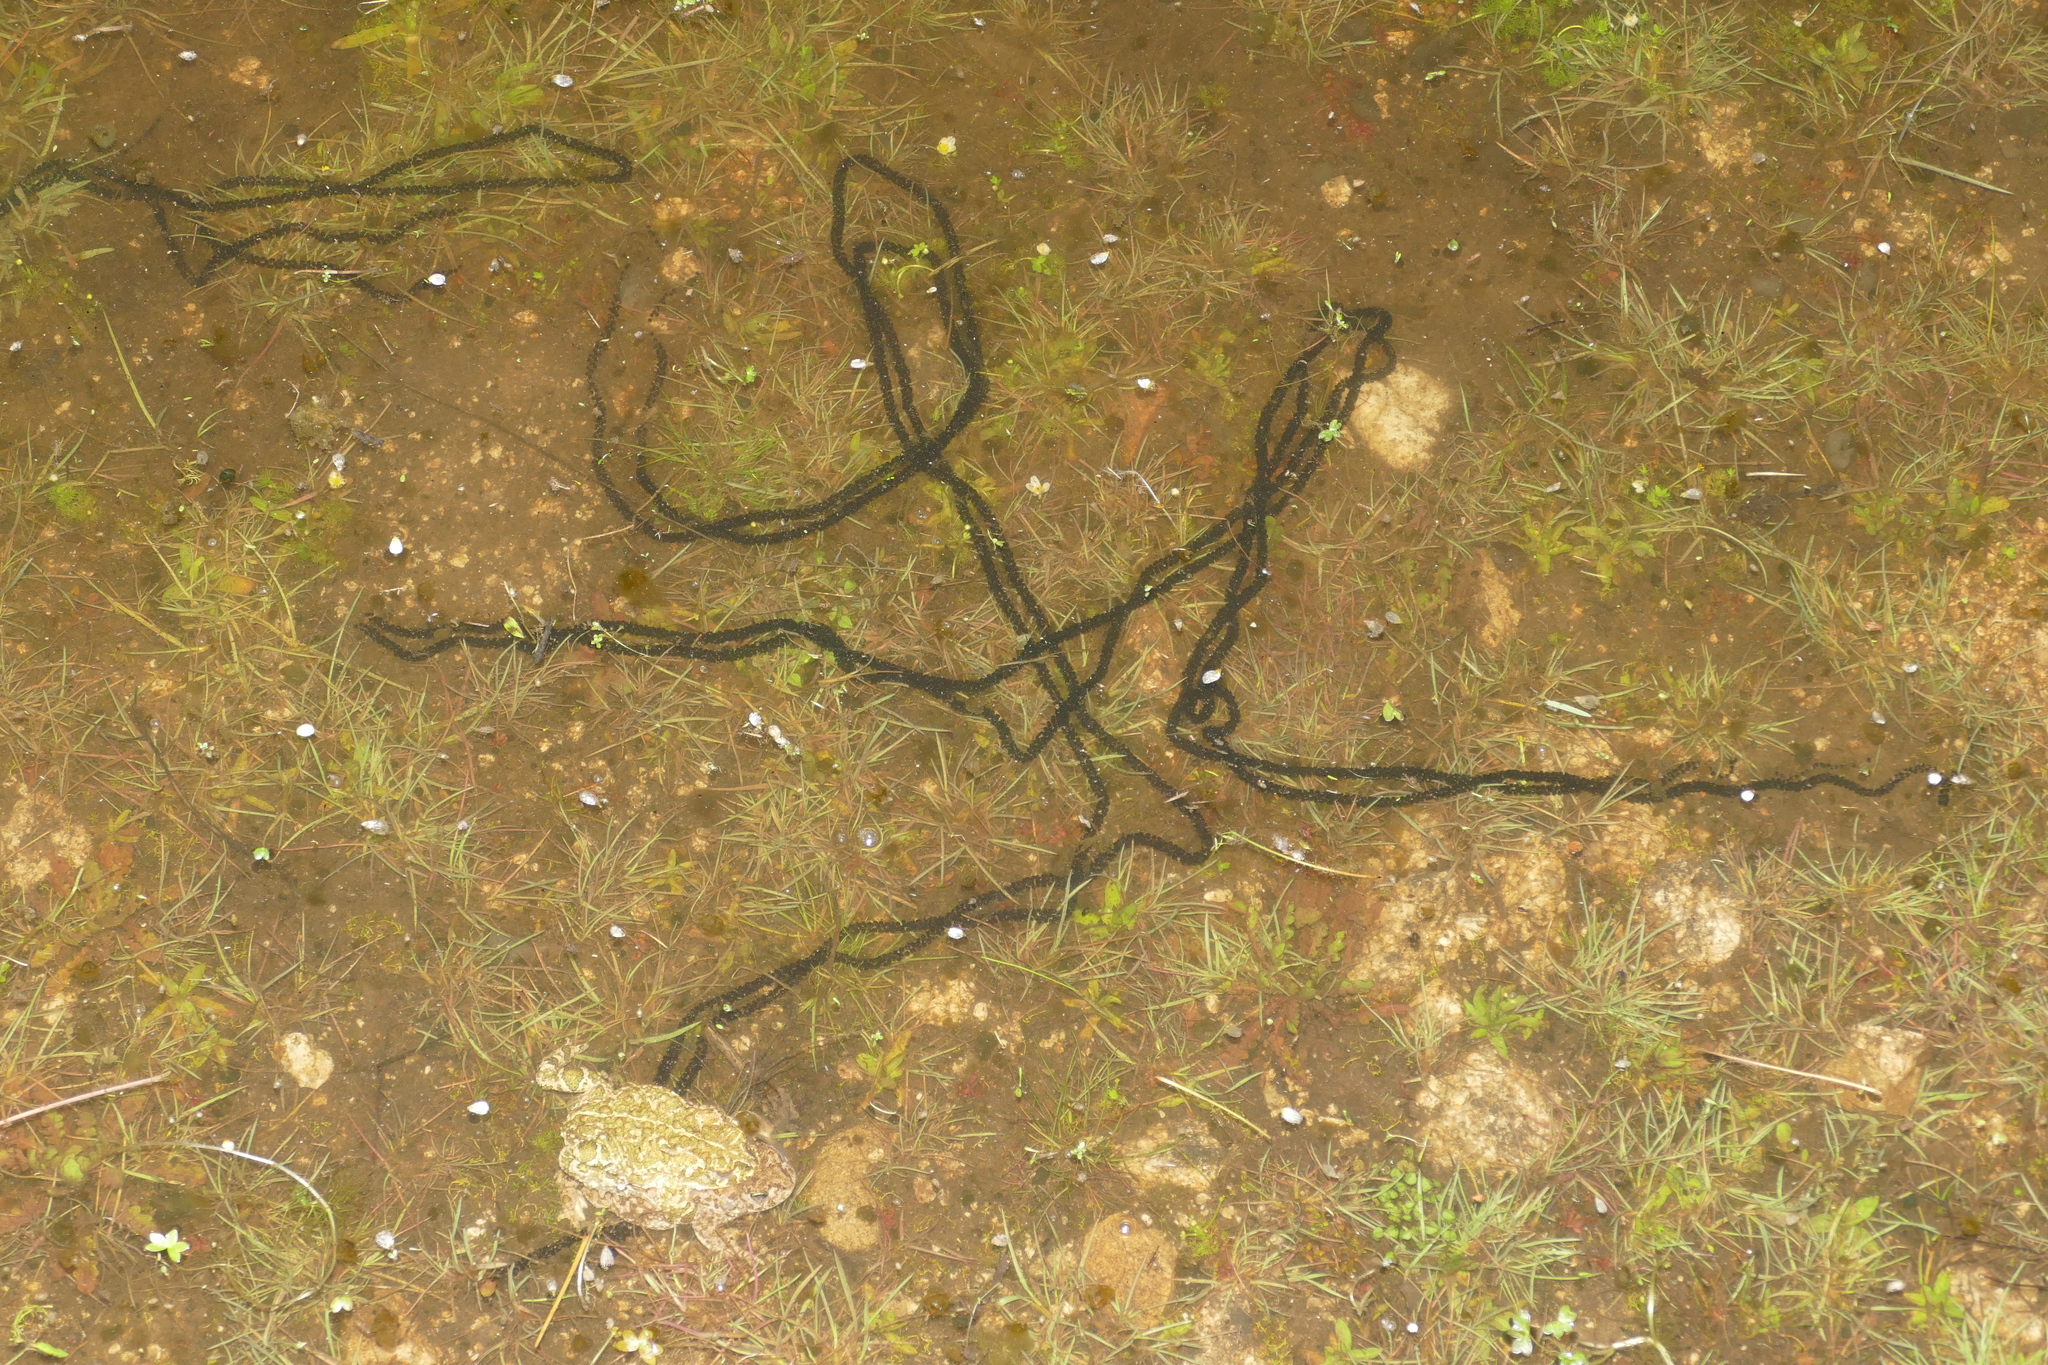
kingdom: Animalia
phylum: Chordata
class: Amphibia
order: Anura
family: Bufonidae
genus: Epidalea
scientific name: Epidalea calamita
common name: Natterjack toad
